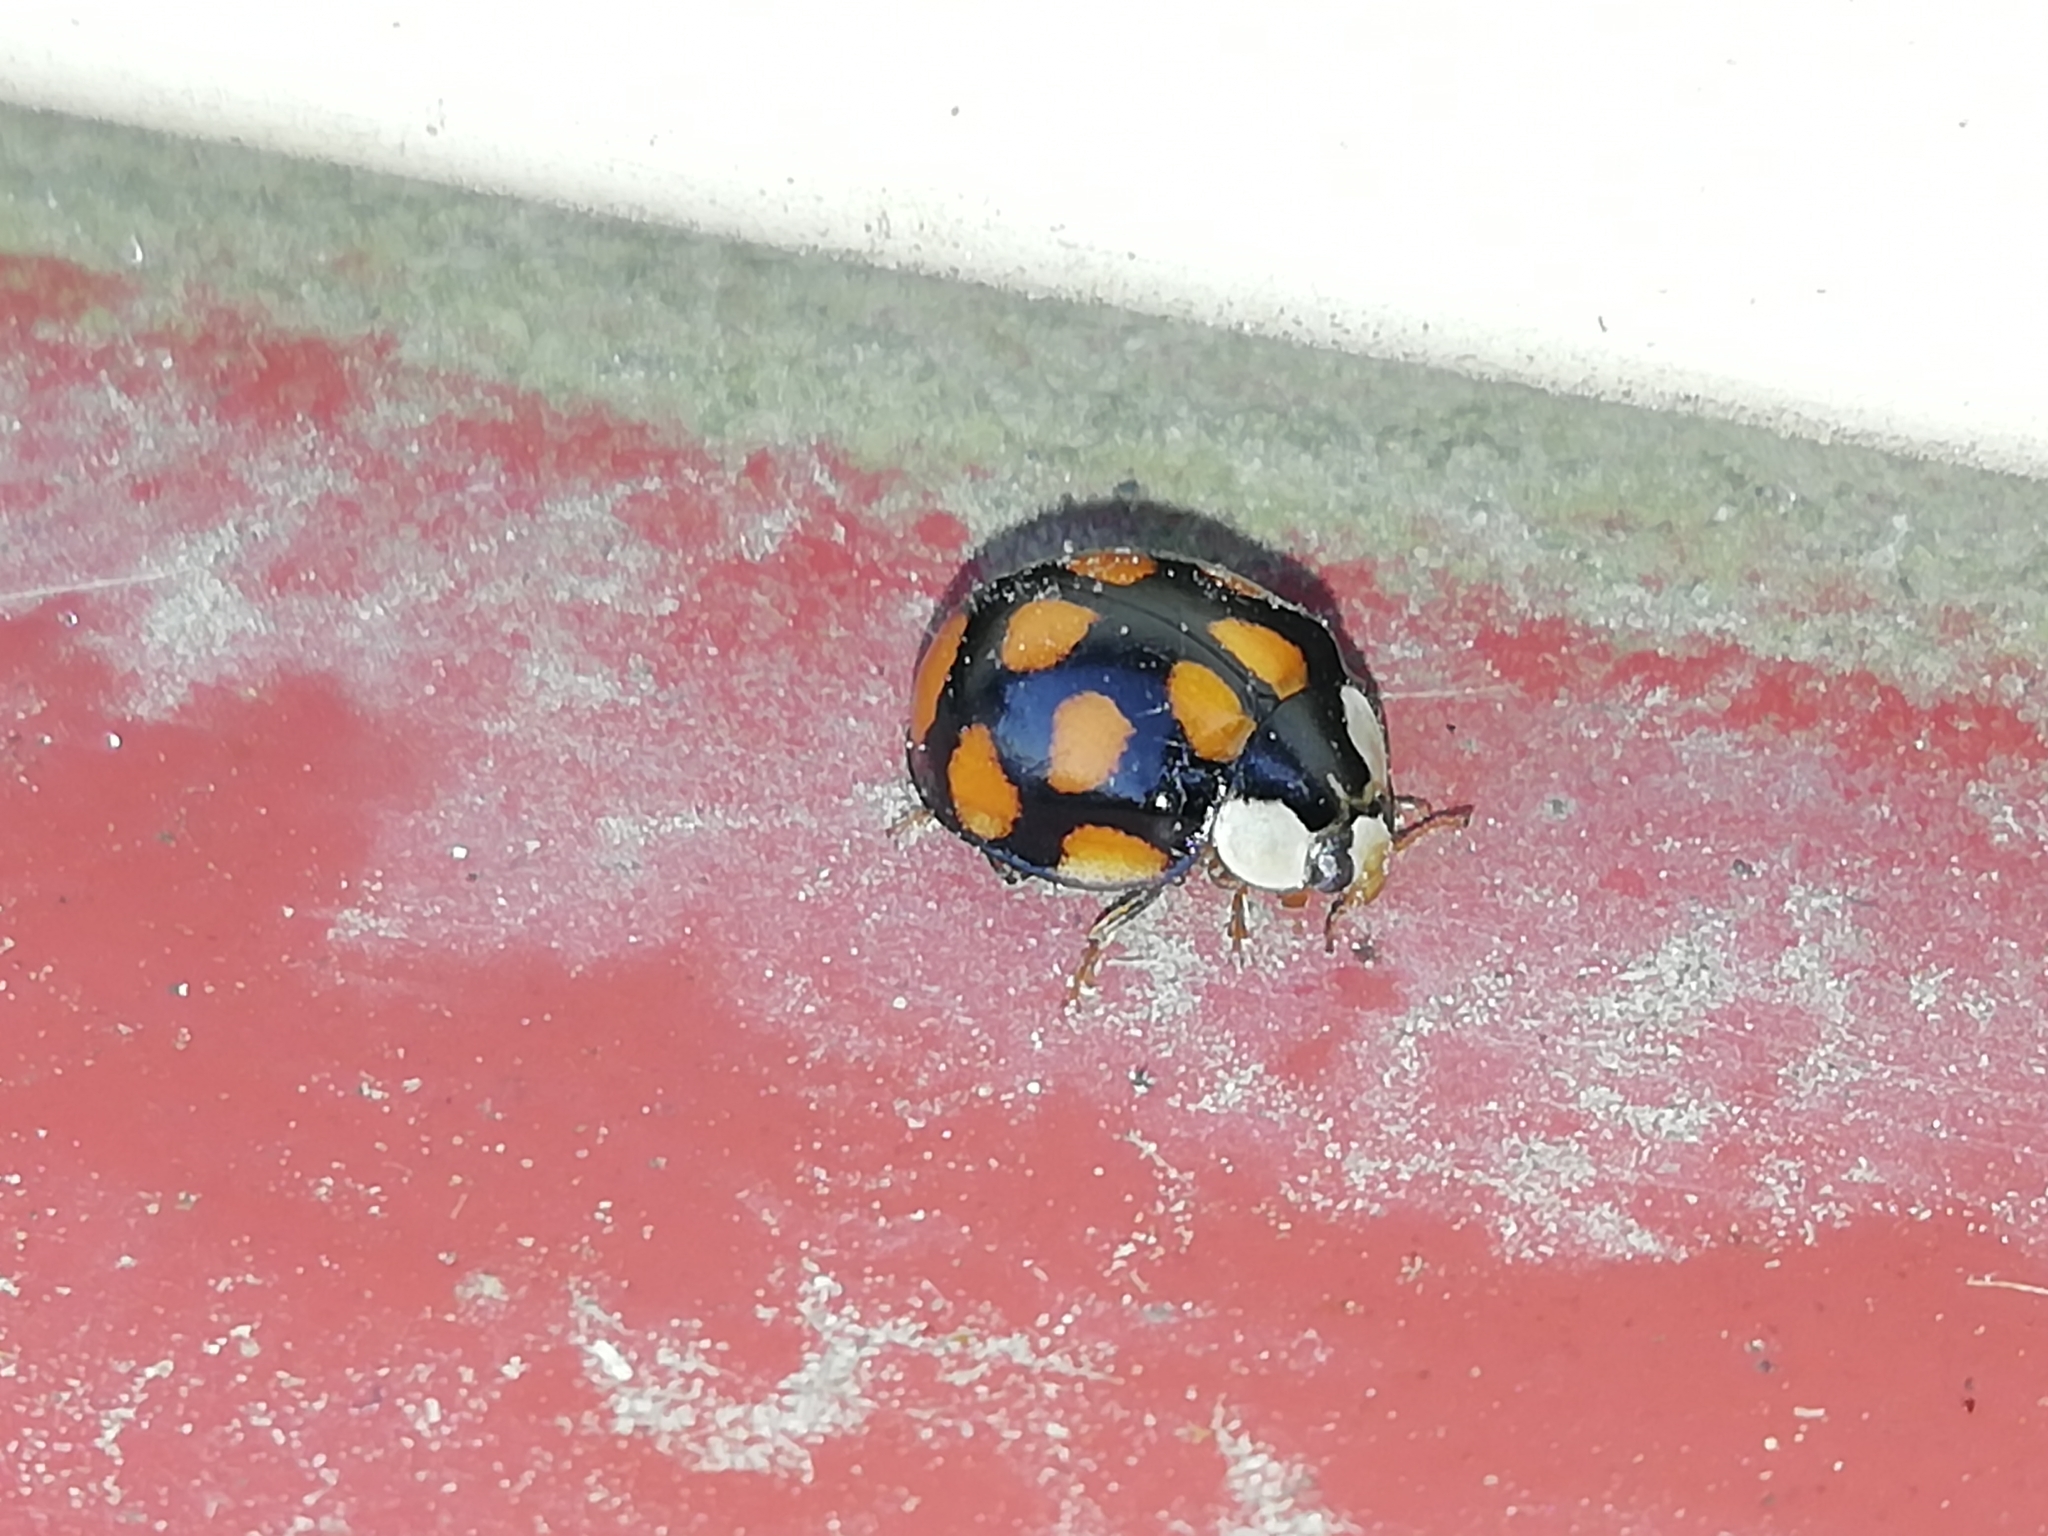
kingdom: Animalia
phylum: Arthropoda
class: Insecta
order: Coleoptera
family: Coccinellidae
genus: Harmonia
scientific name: Harmonia axyridis
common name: Harlequin ladybird
